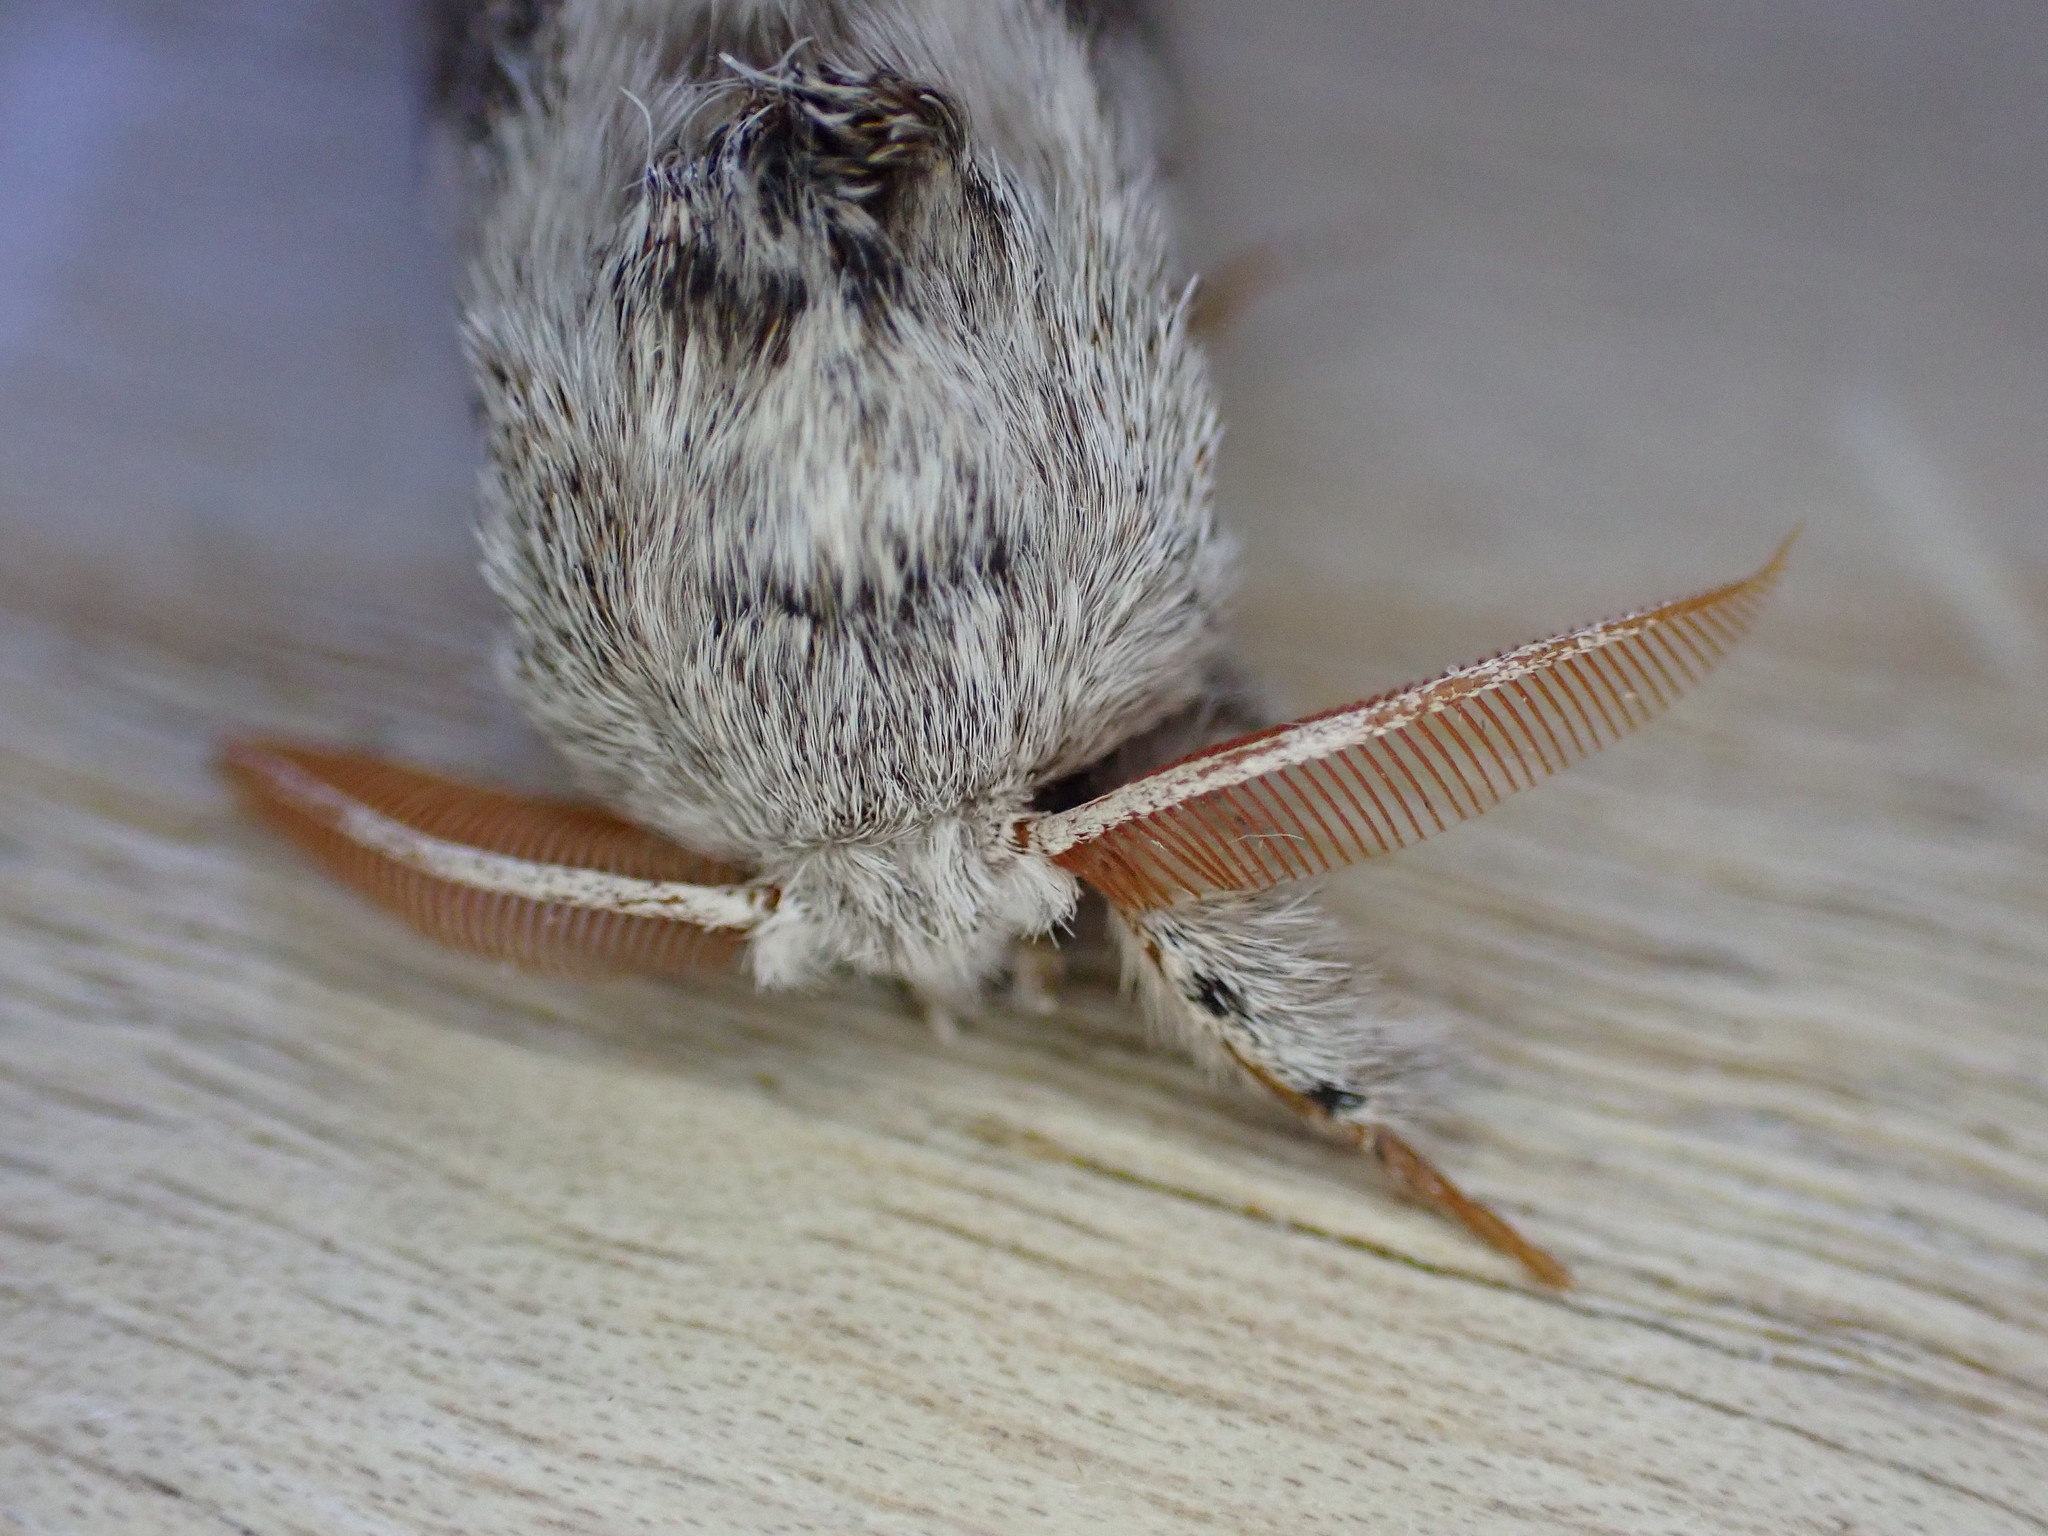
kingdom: Animalia
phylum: Arthropoda
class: Insecta
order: Lepidoptera
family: Erebidae
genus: Calliteara
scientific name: Calliteara pudibunda
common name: Pale tussock
